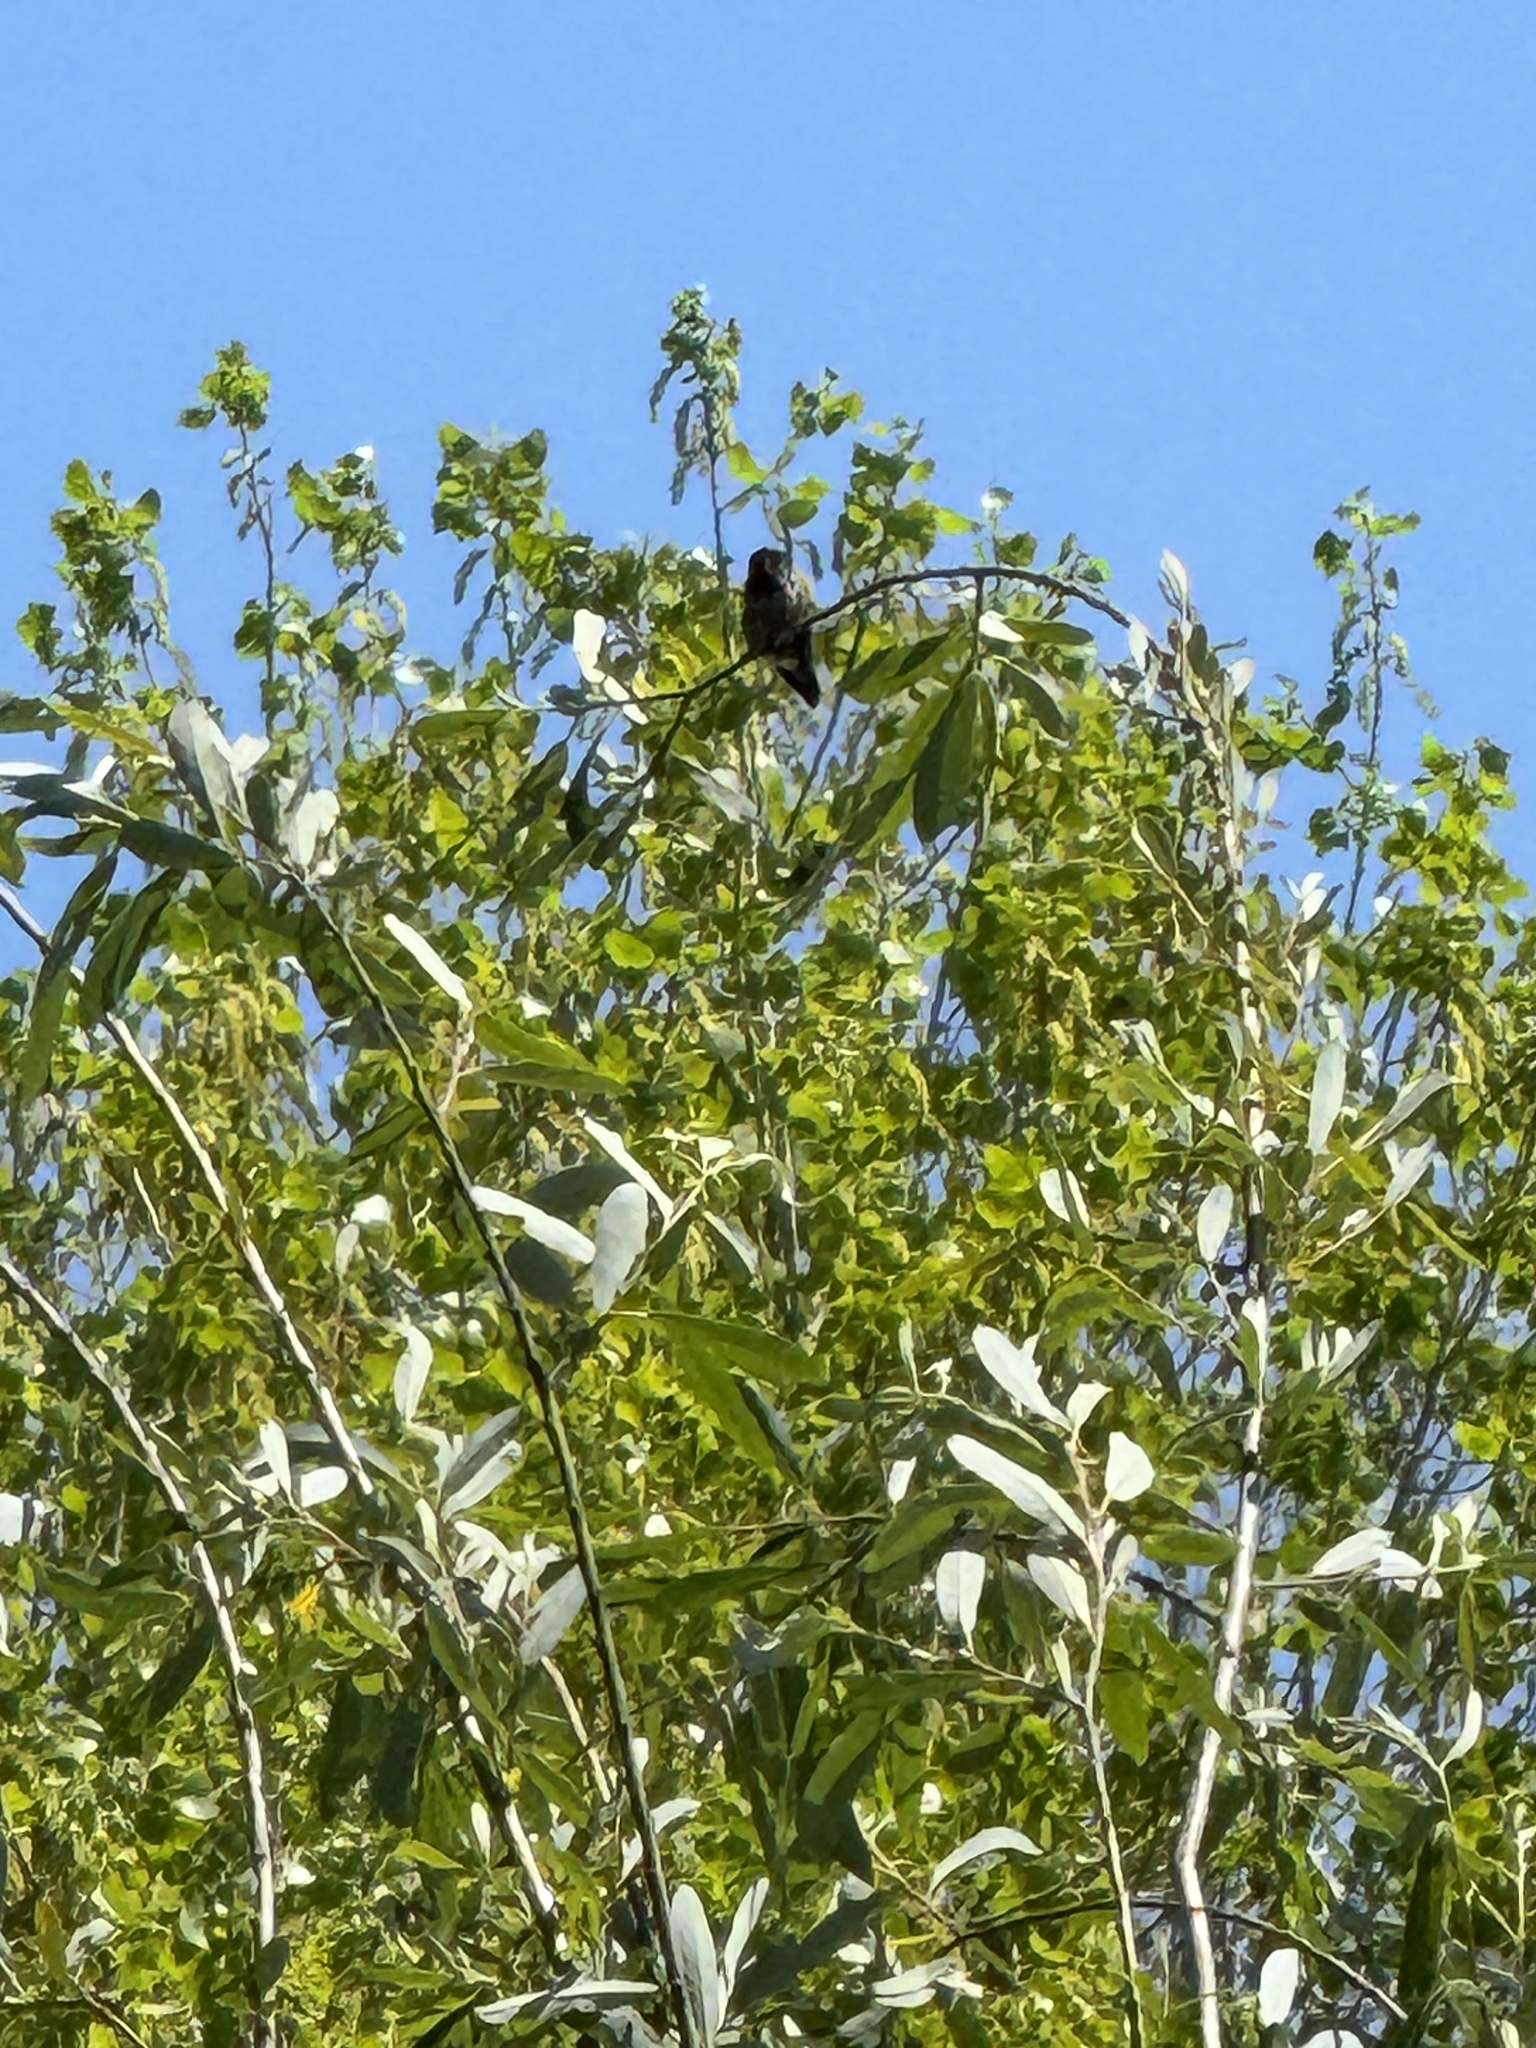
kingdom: Animalia
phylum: Chordata
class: Aves
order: Apodiformes
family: Trochilidae
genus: Calypte
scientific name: Calypte anna
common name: Anna's hummingbird
